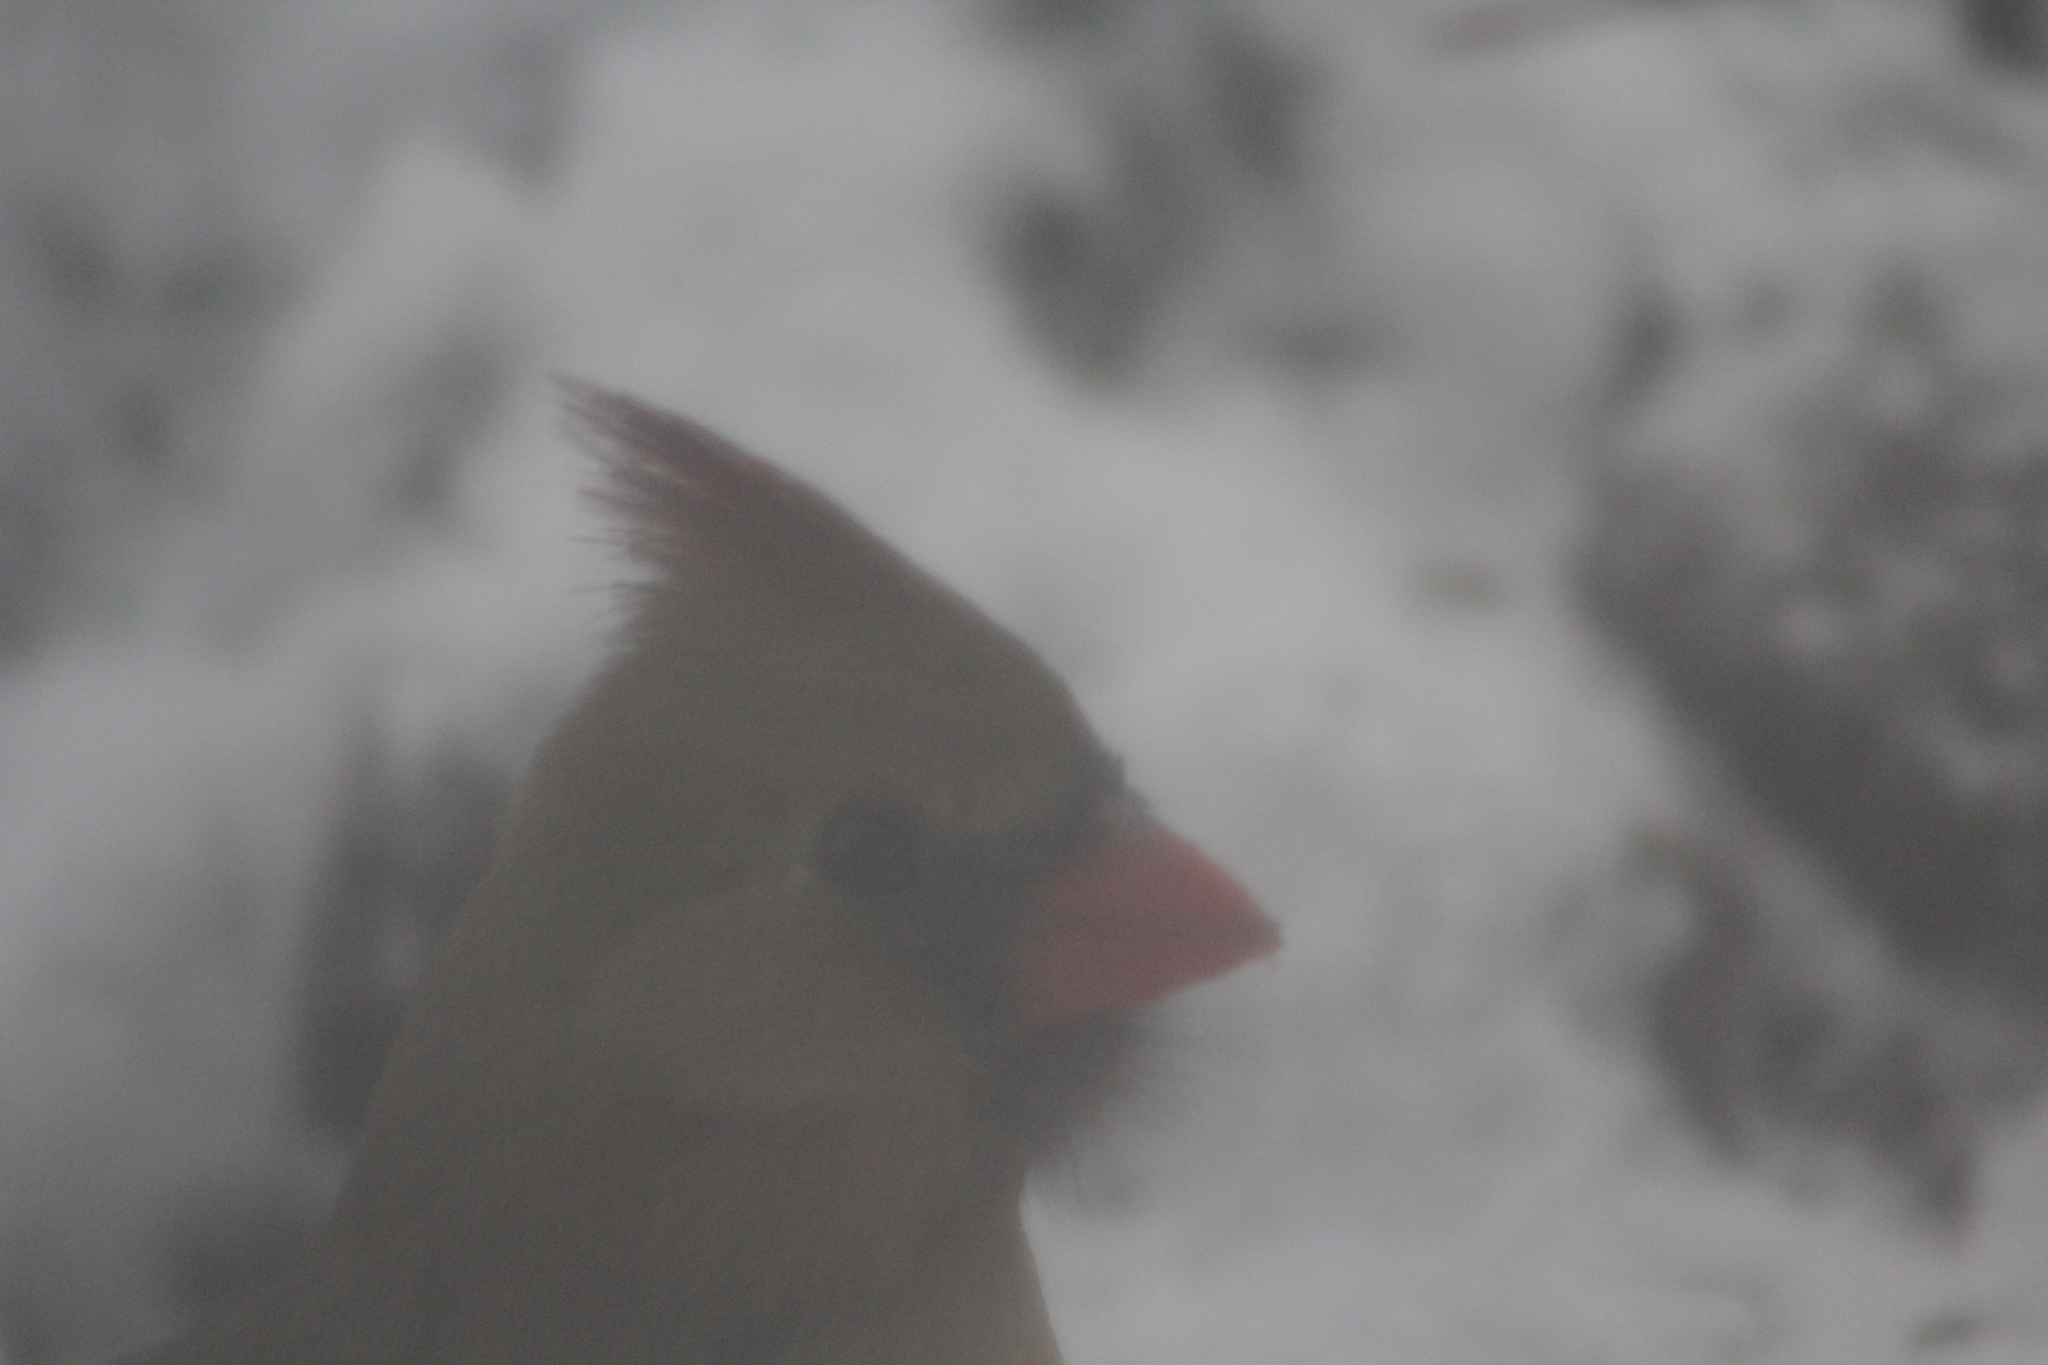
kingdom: Animalia
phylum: Chordata
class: Aves
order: Passeriformes
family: Cardinalidae
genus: Cardinalis
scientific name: Cardinalis cardinalis
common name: Northern cardinal
